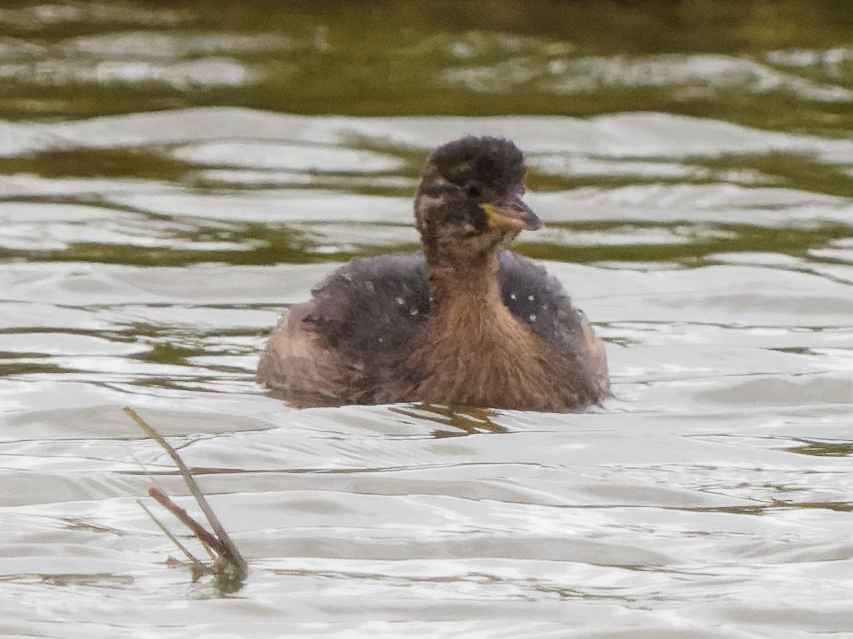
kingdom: Animalia
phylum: Chordata
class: Aves
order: Podicipediformes
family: Podicipedidae
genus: Tachybaptus
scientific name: Tachybaptus ruficollis
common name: Little grebe
